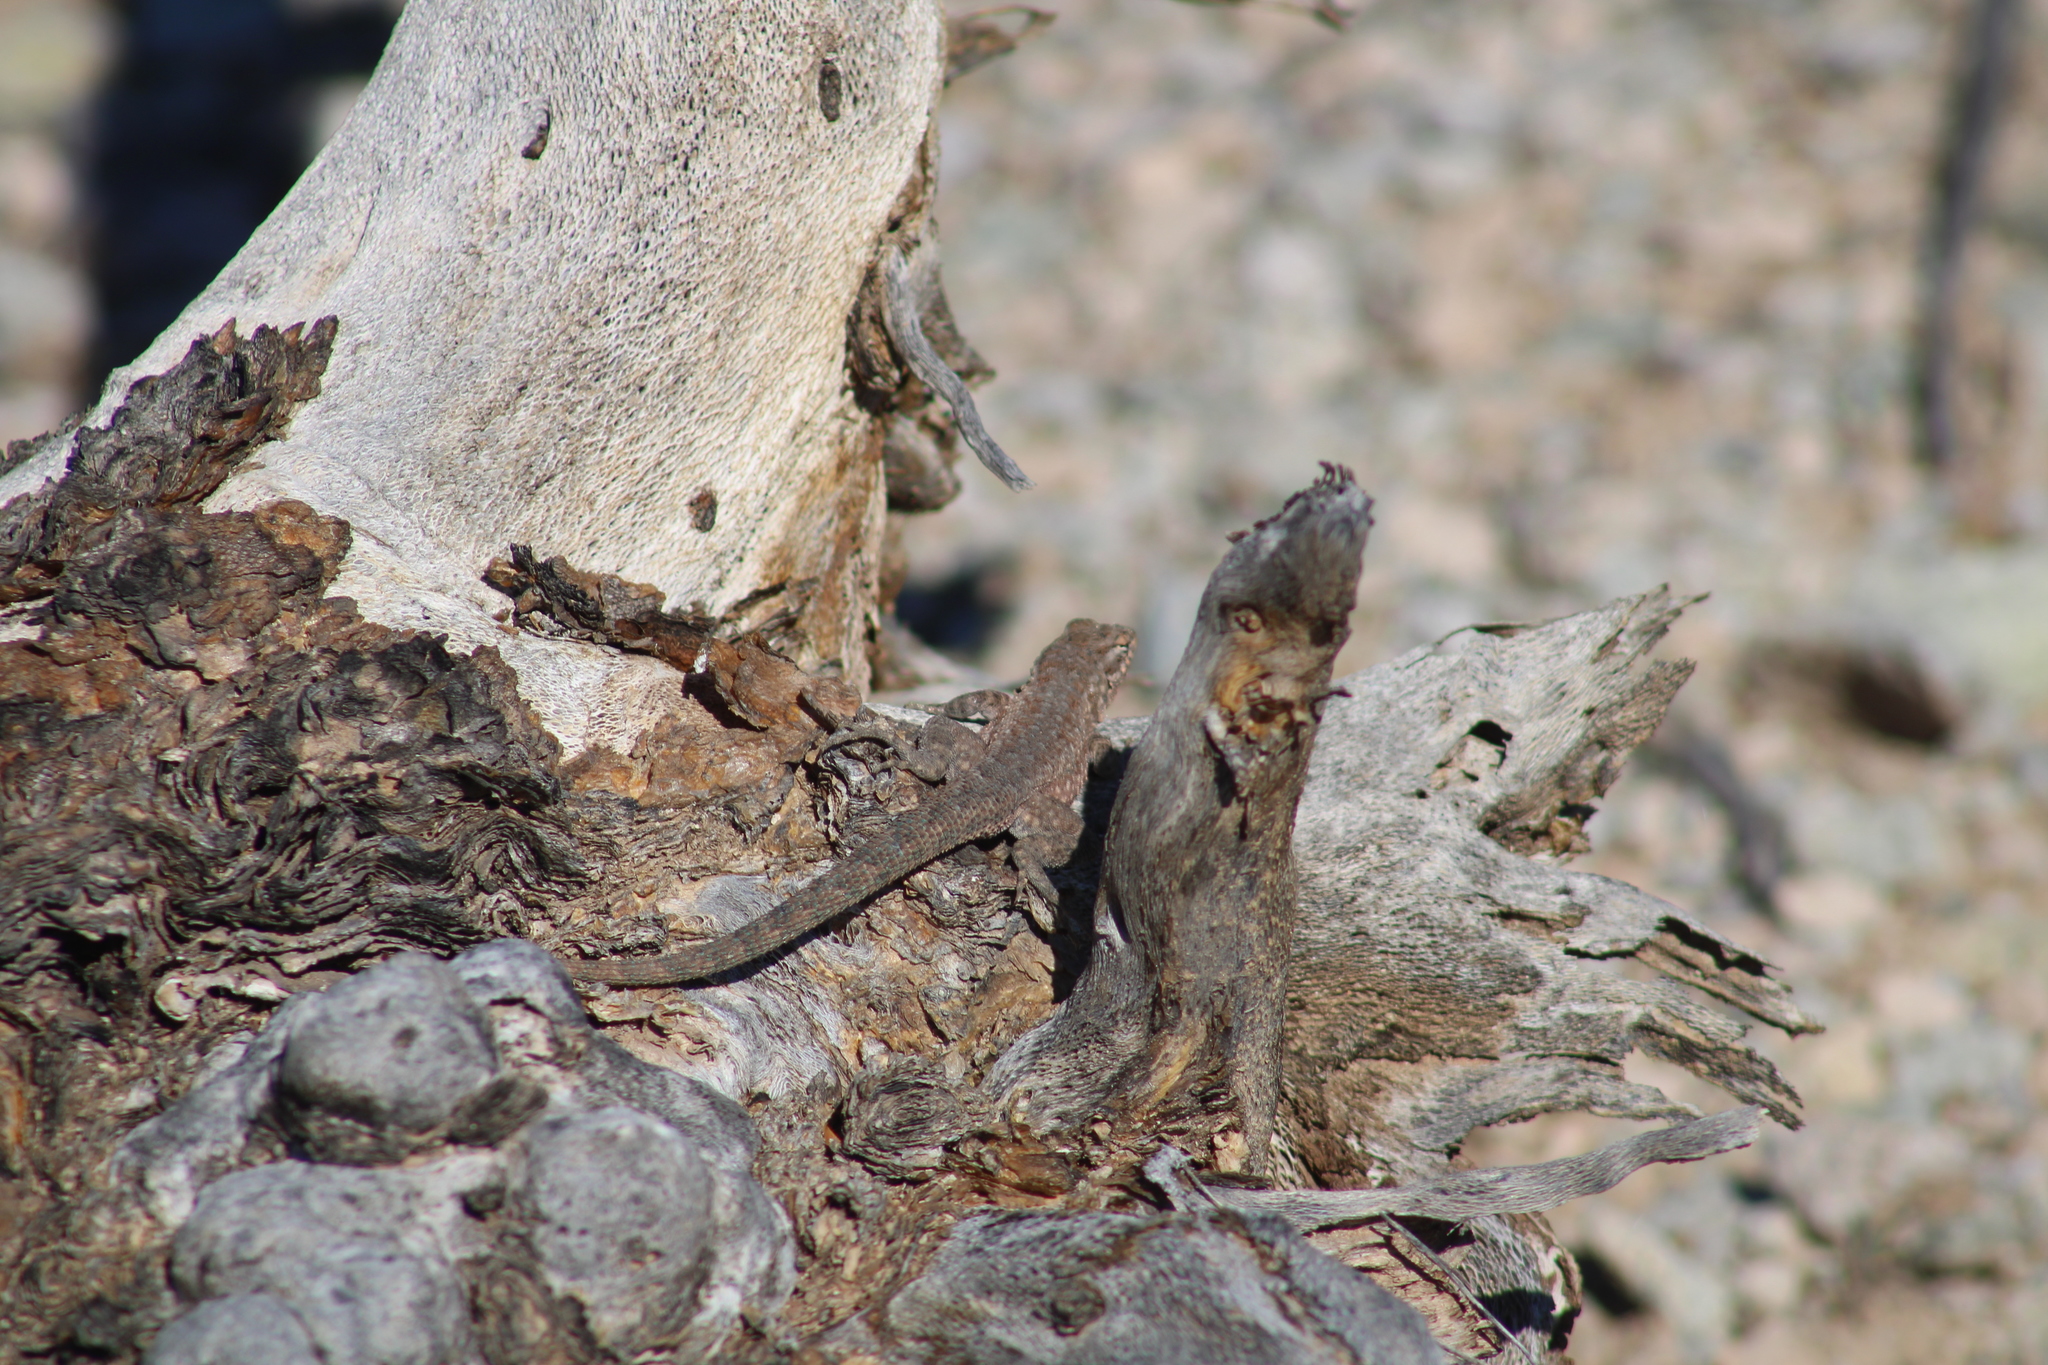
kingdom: Animalia
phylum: Chordata
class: Squamata
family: Phrynosomatidae
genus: Uta
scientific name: Uta stansburiana
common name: Side-blotched lizard
